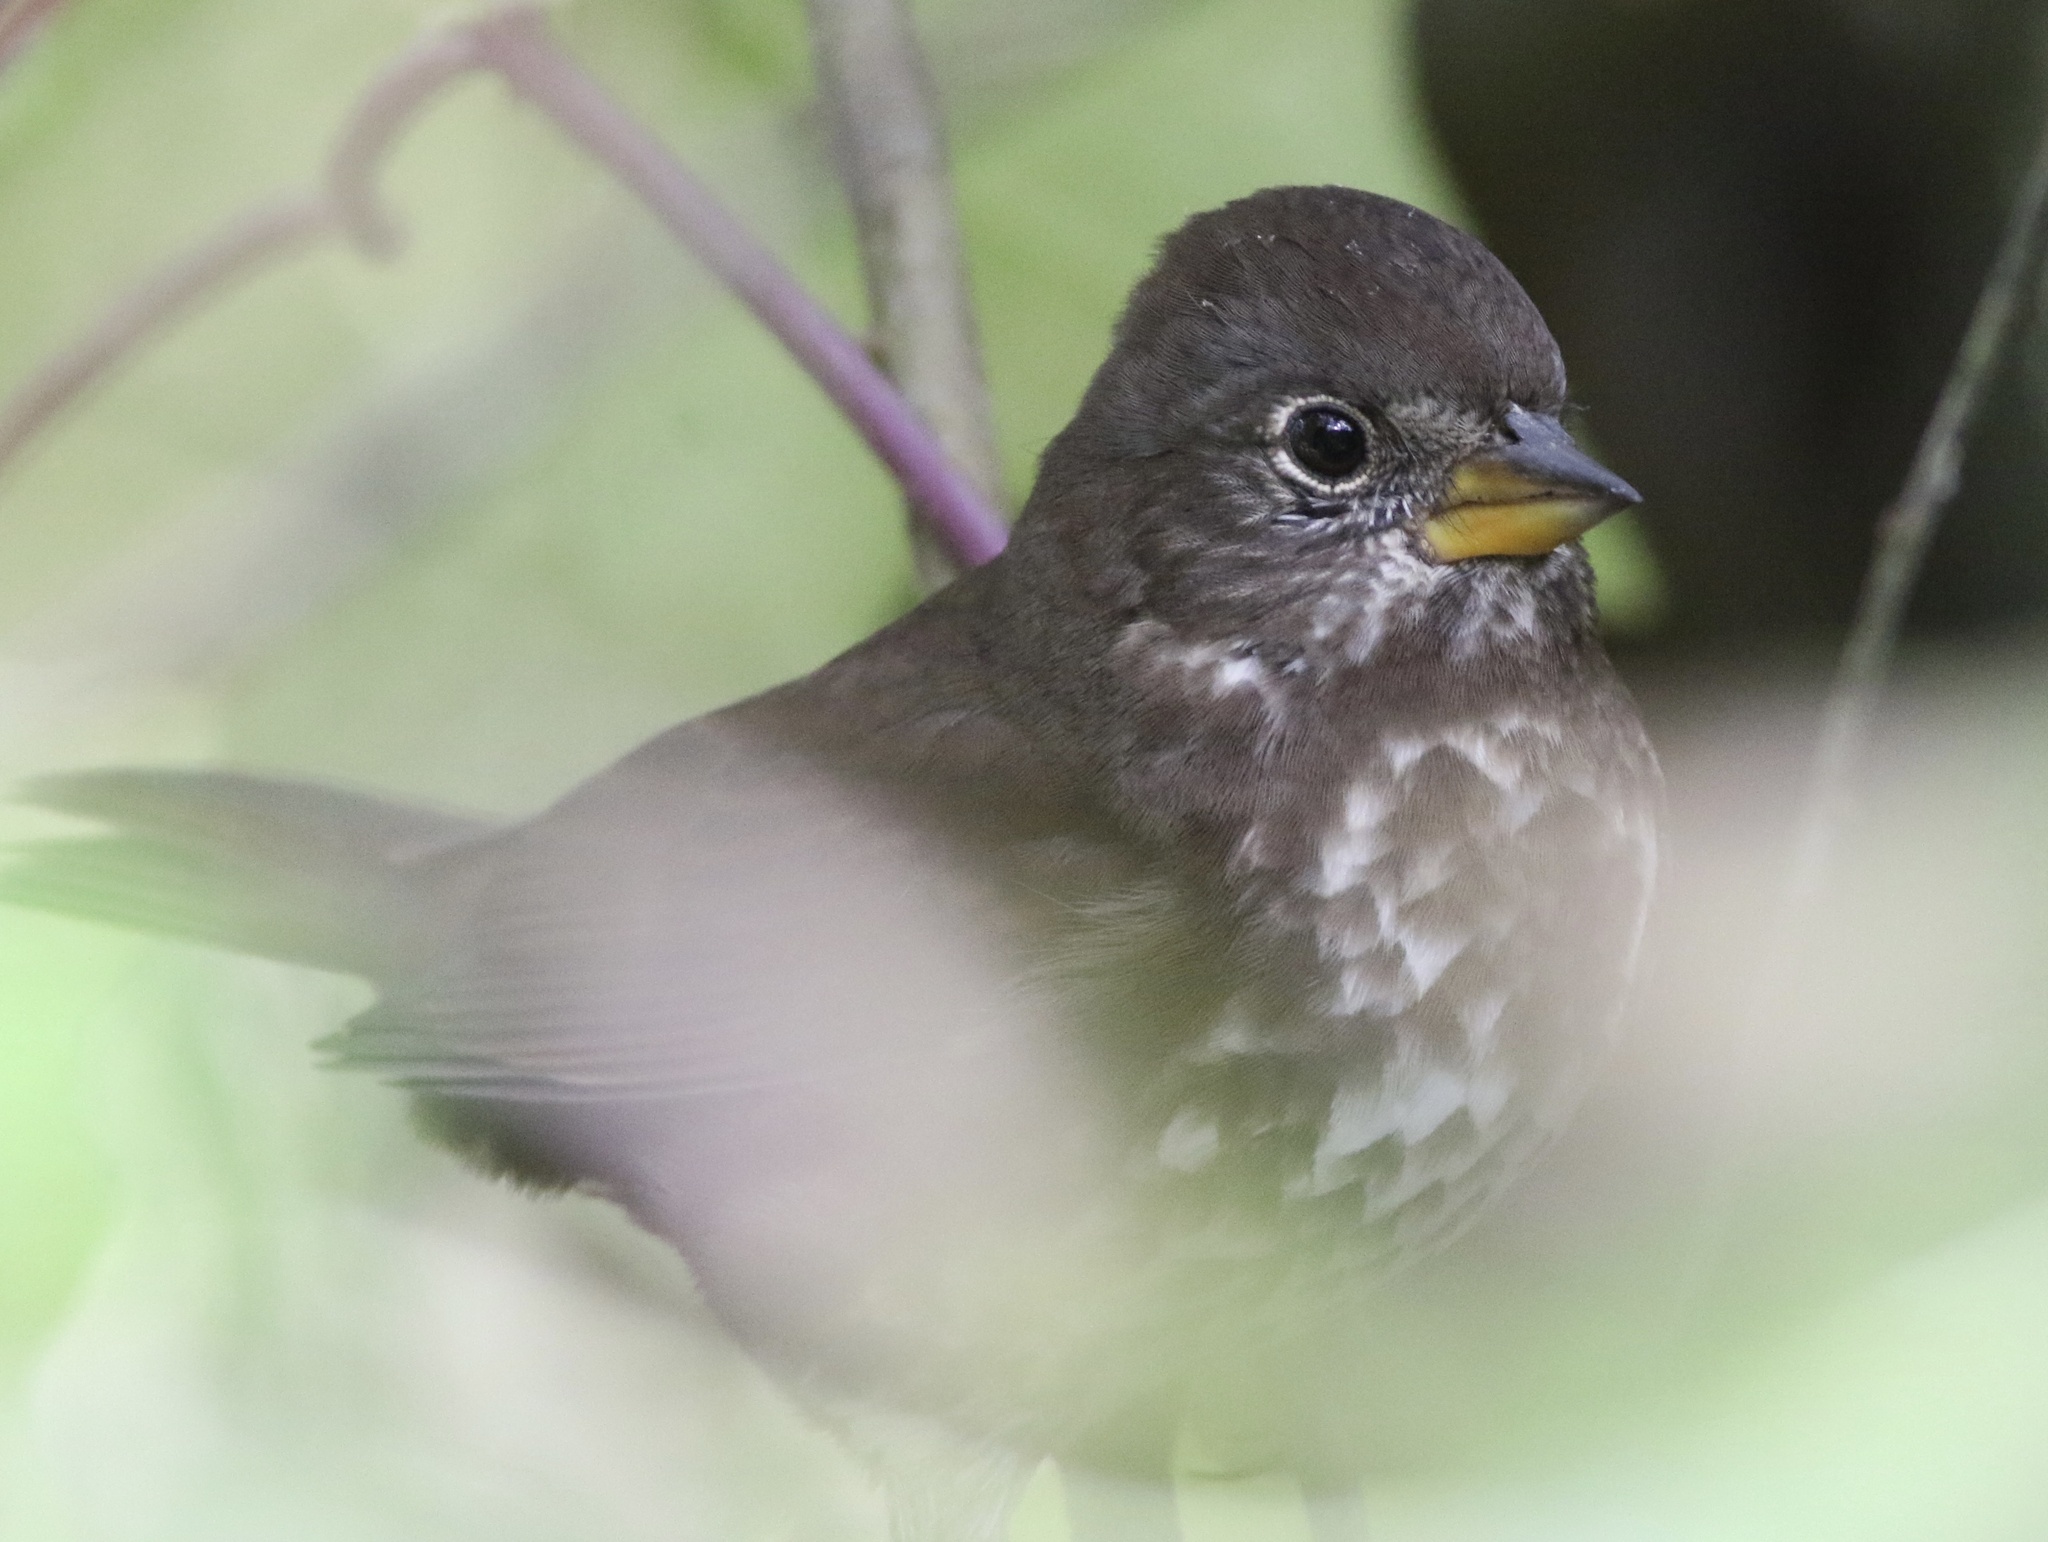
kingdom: Animalia
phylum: Chordata
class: Aves
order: Passeriformes
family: Passerellidae
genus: Passerella
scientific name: Passerella iliaca
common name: Fox sparrow
